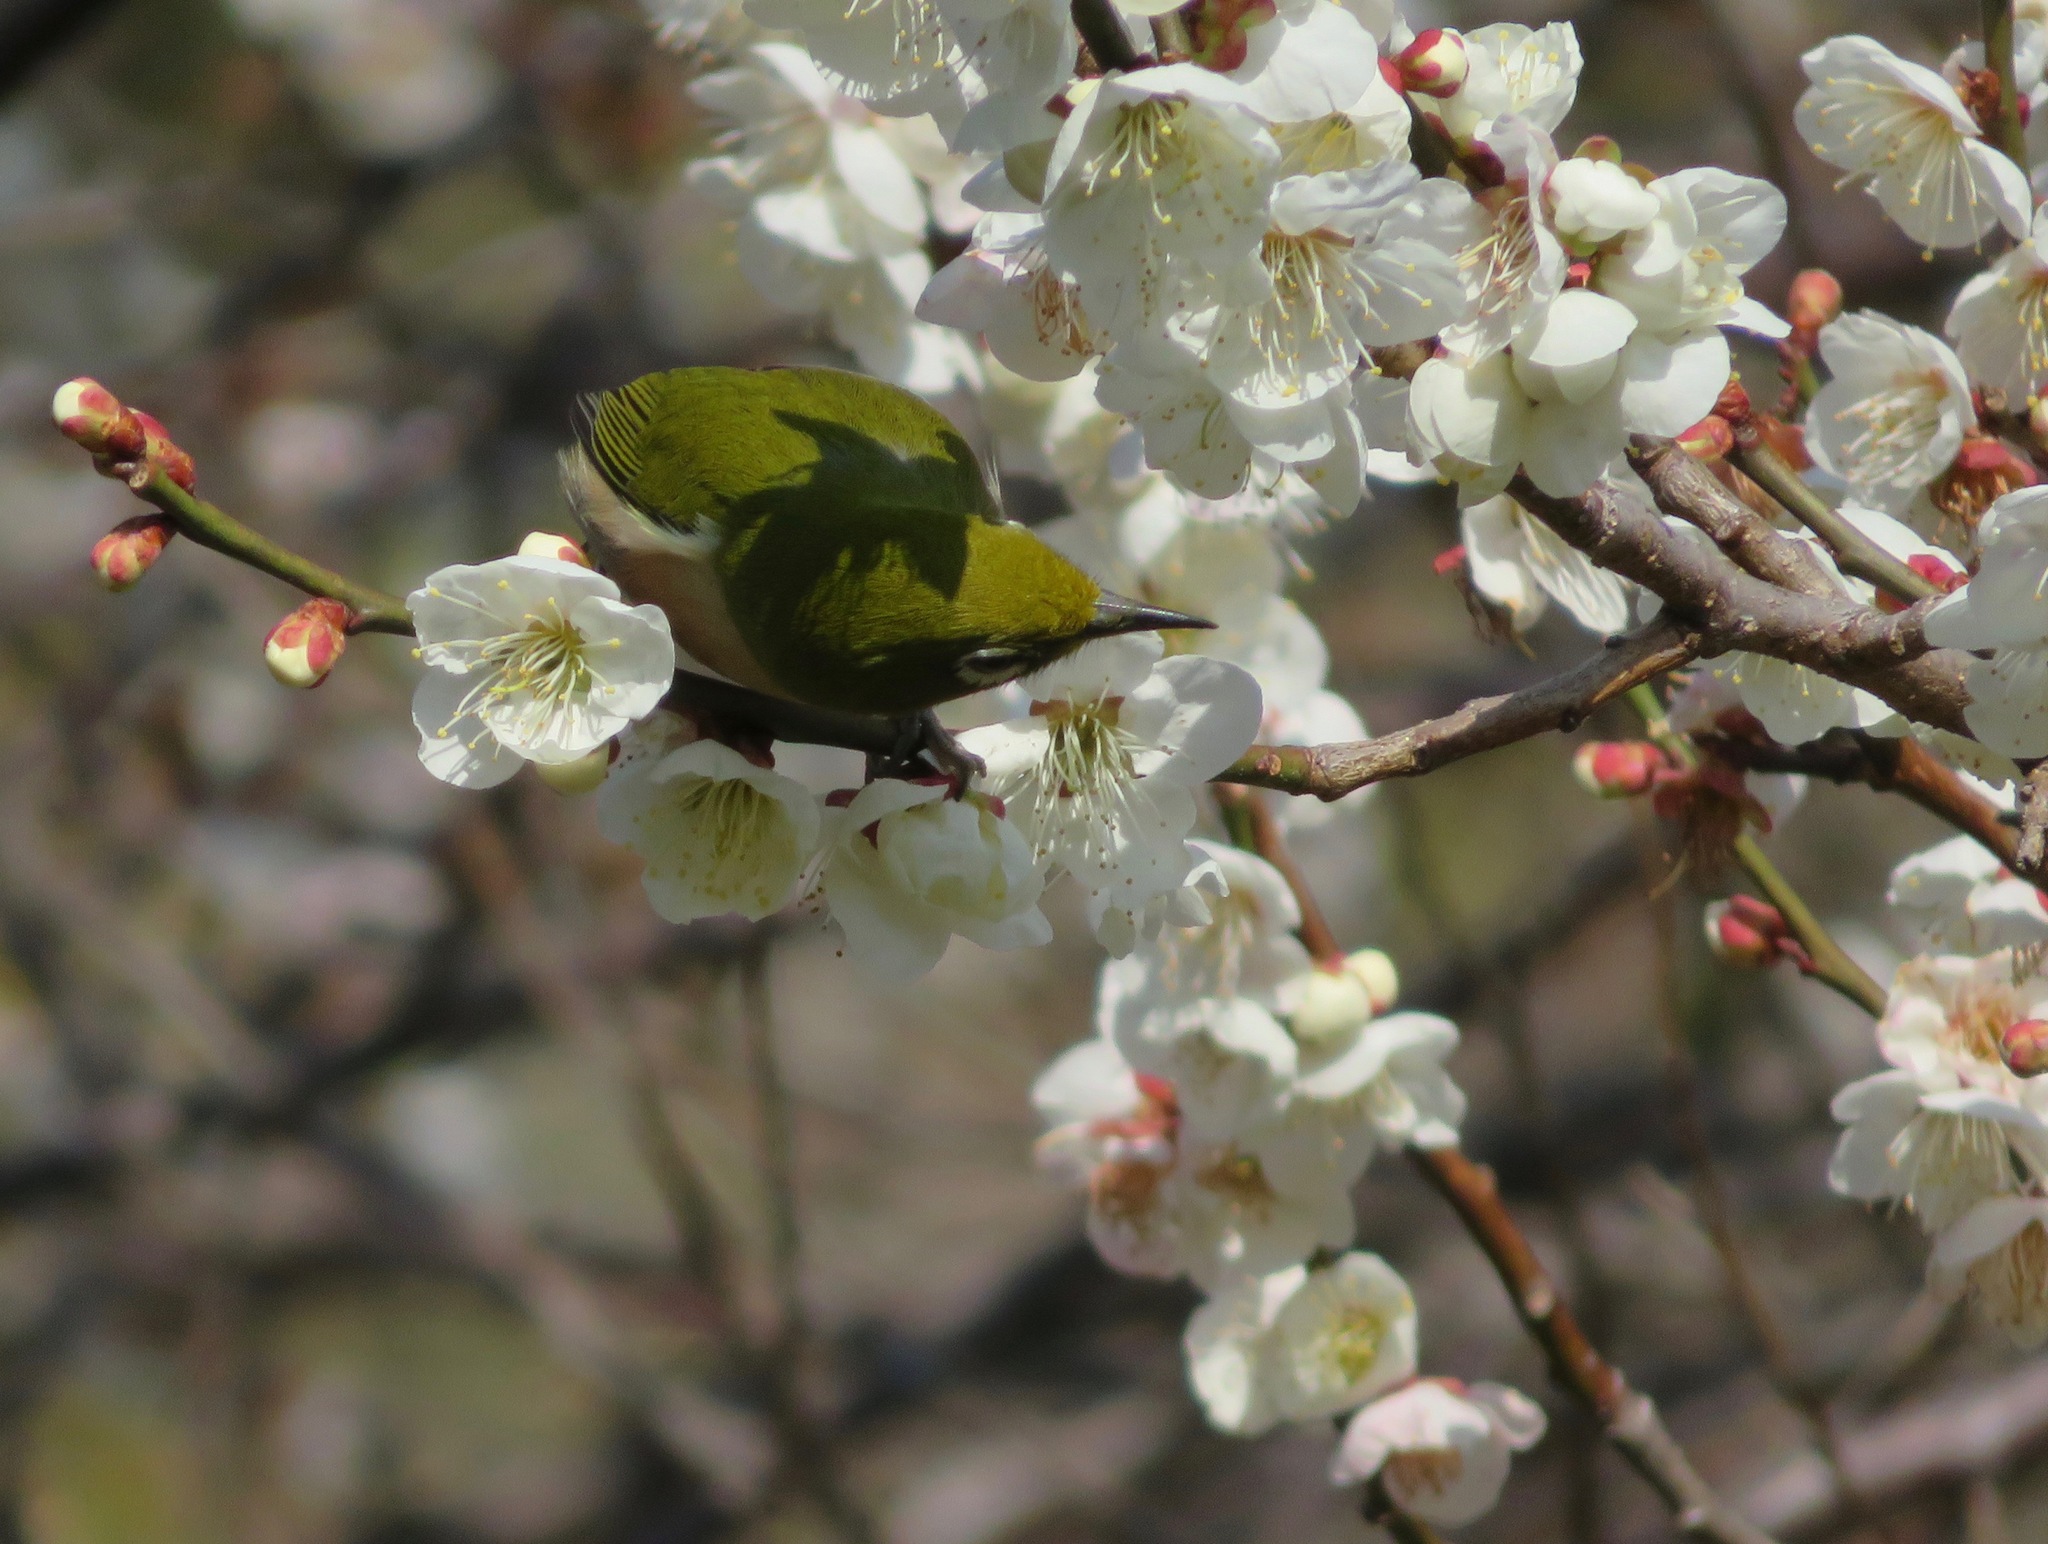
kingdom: Animalia
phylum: Chordata
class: Aves
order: Passeriformes
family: Zosteropidae
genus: Zosterops
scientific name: Zosterops japonicus
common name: Japanese white-eye
